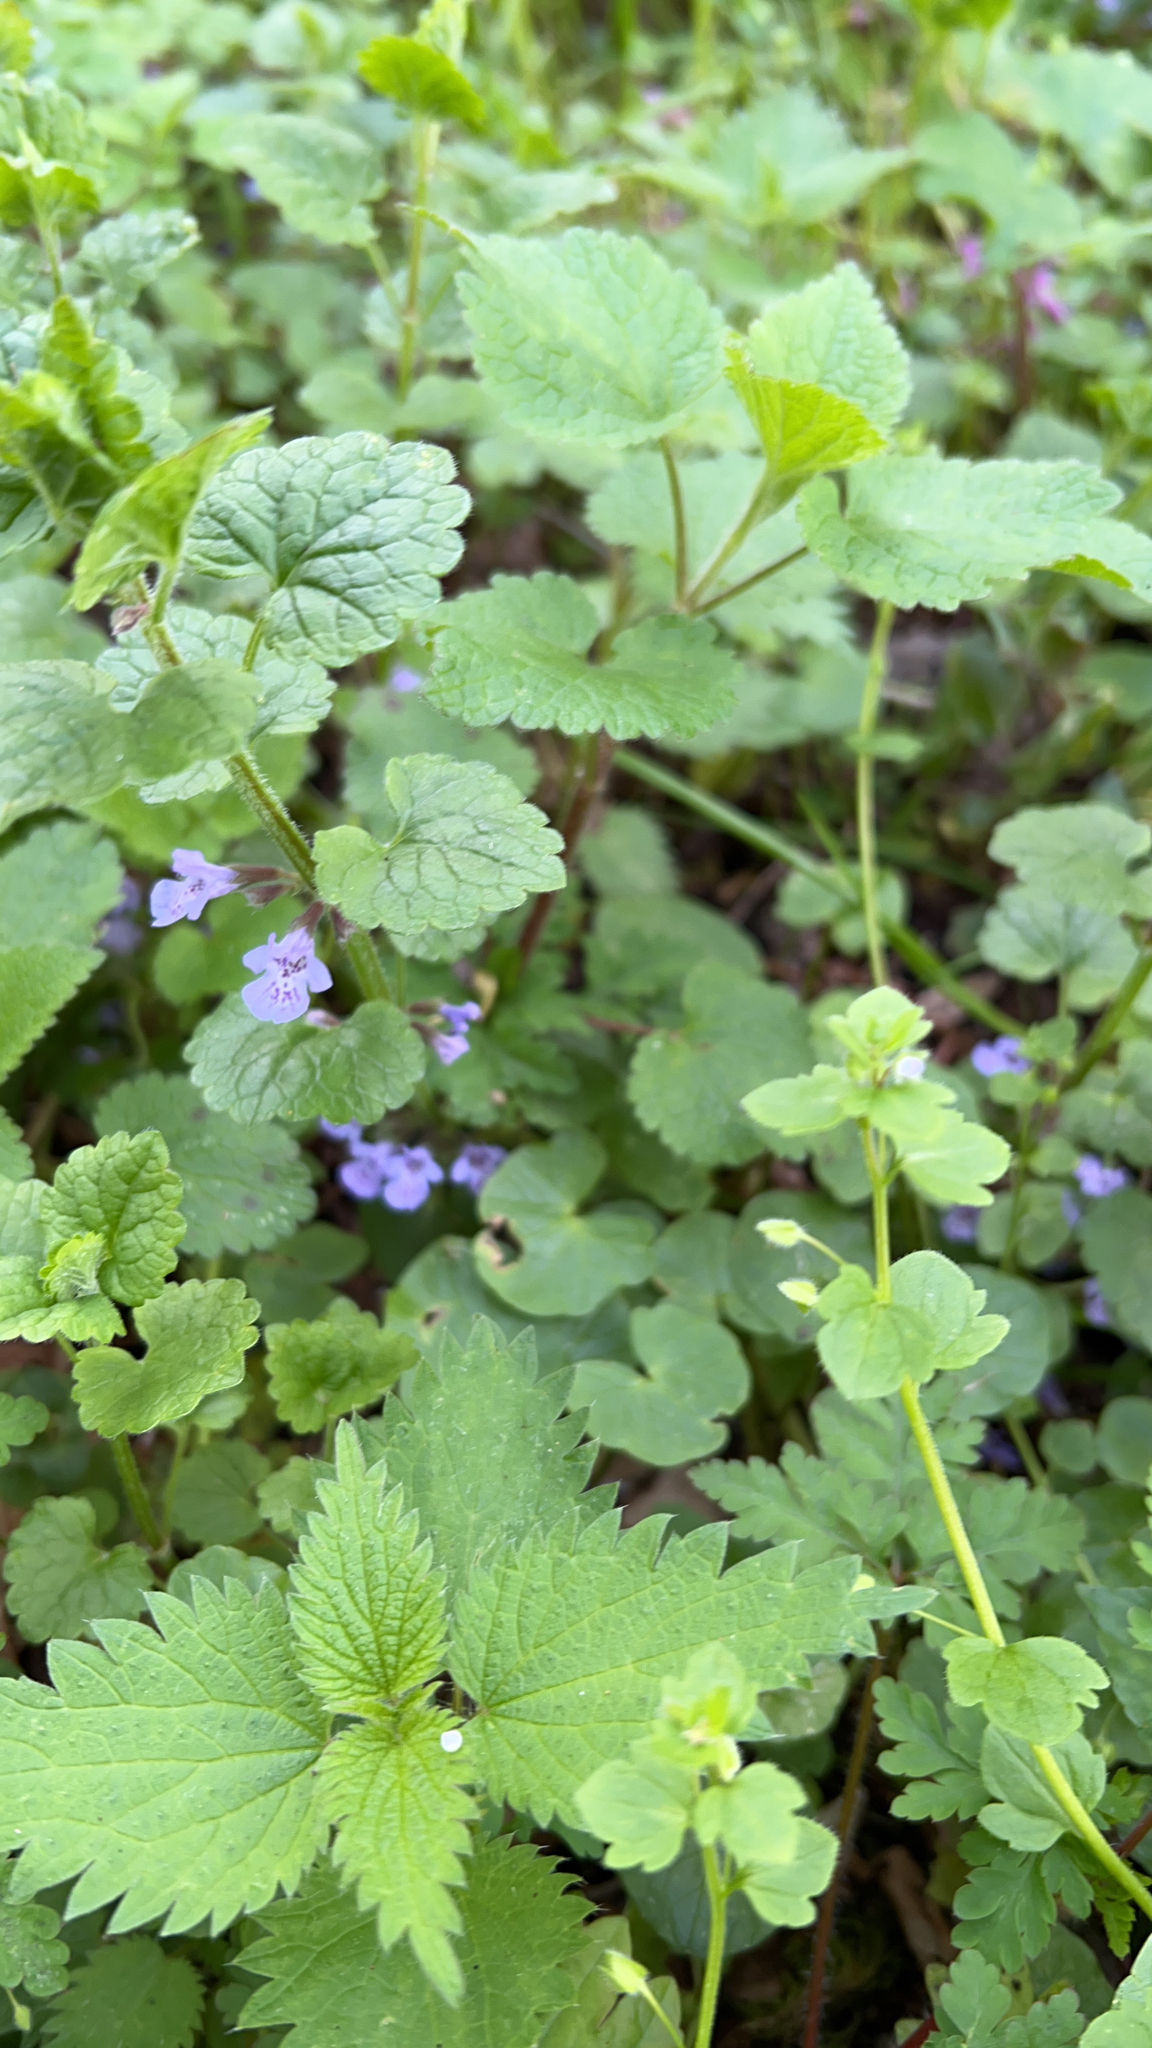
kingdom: Plantae
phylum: Tracheophyta
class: Magnoliopsida
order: Lamiales
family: Lamiaceae
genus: Glechoma
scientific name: Glechoma hederacea
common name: Ground ivy
